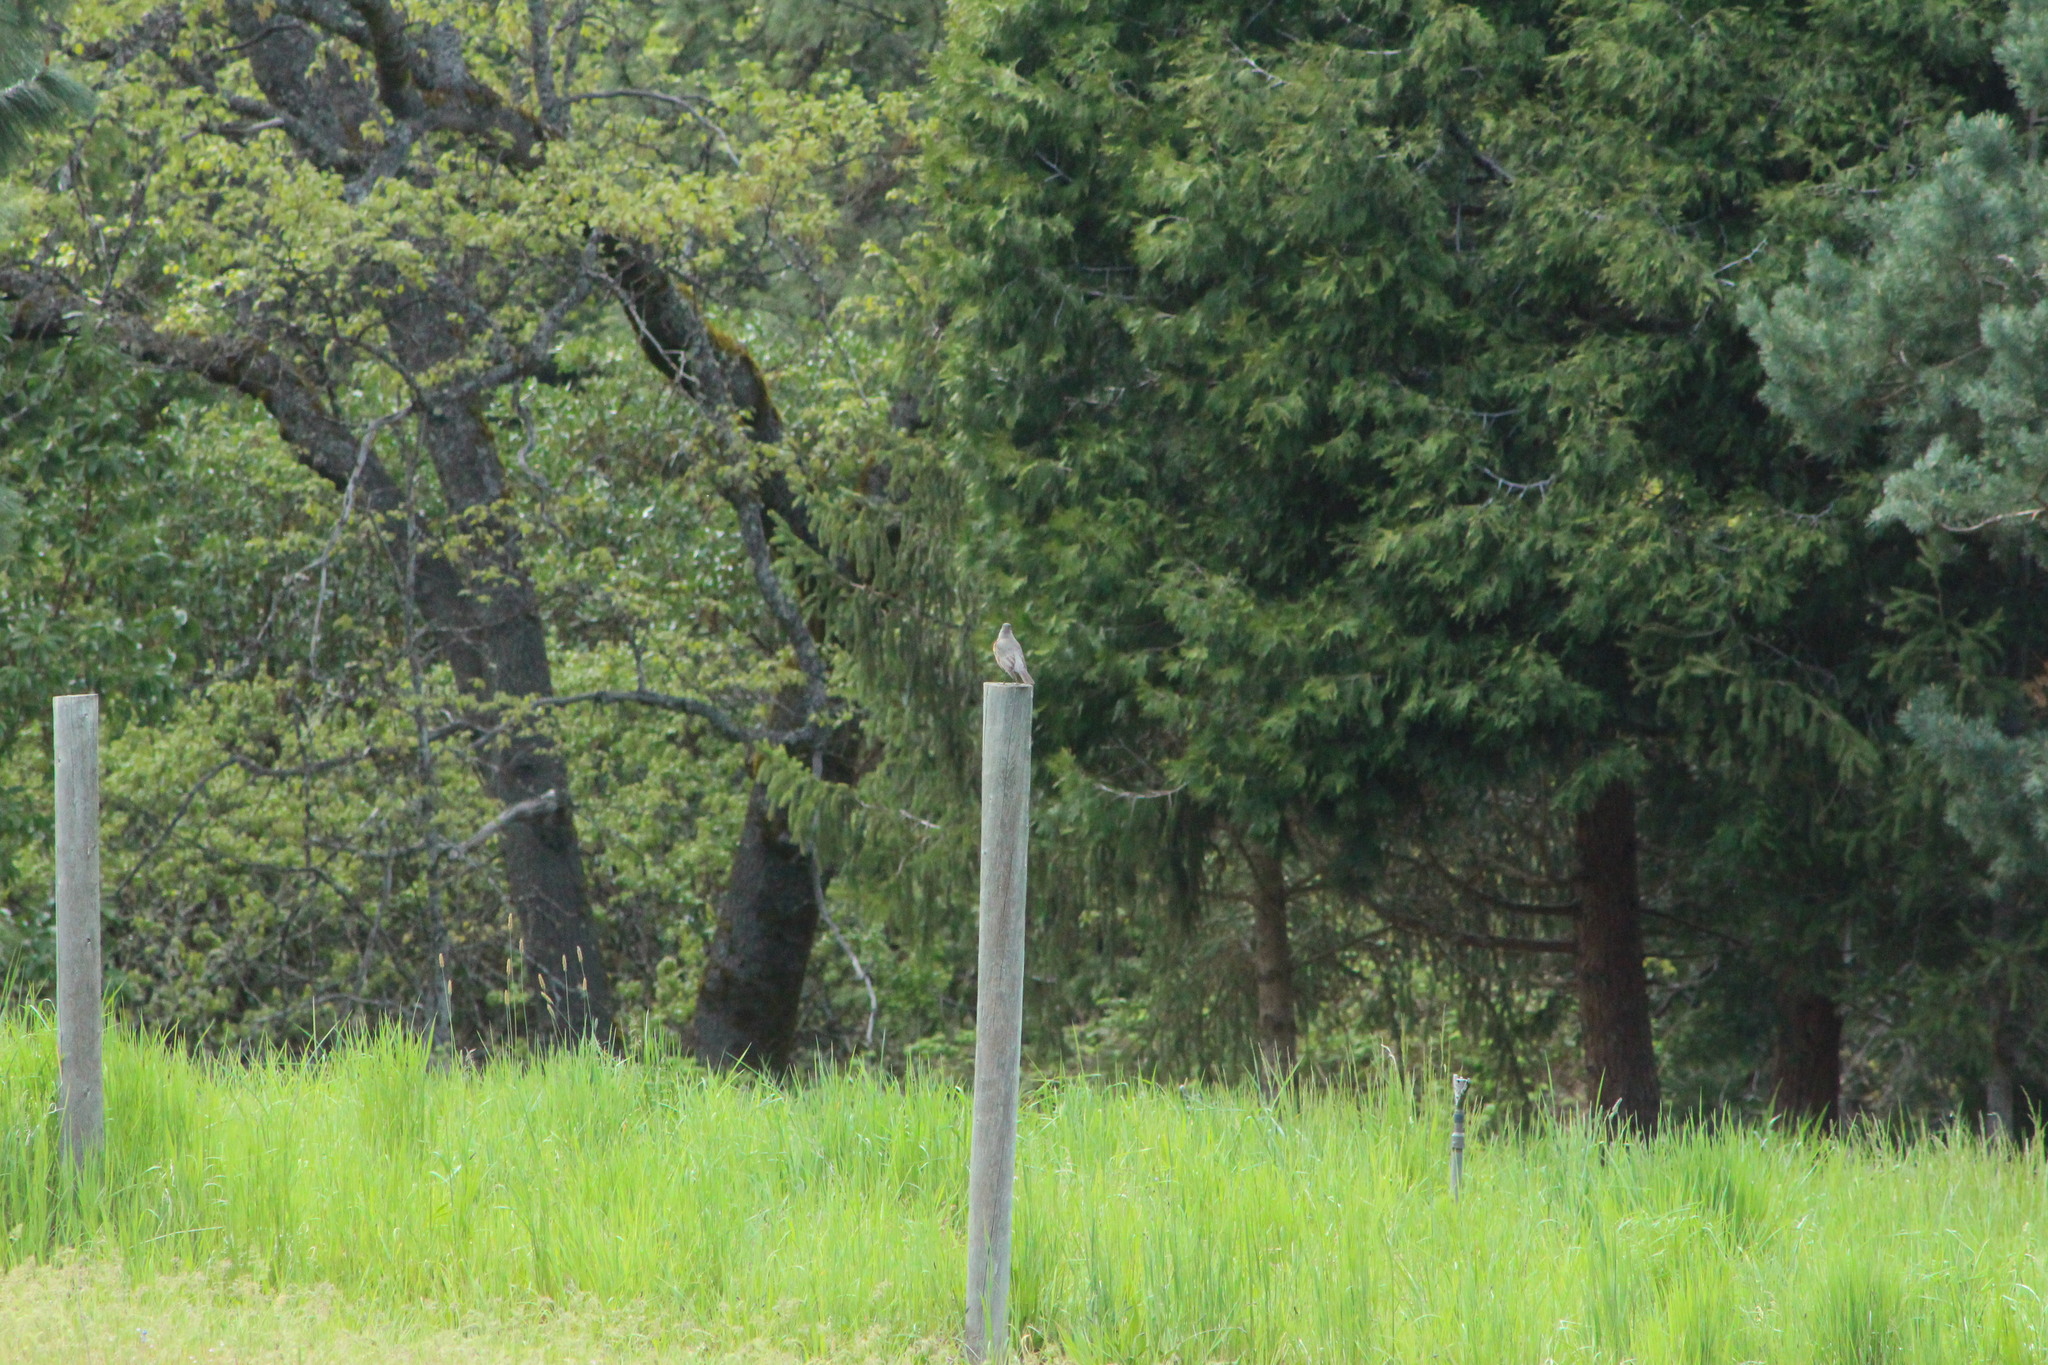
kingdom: Animalia
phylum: Chordata
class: Aves
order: Passeriformes
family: Turdidae
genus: Turdus
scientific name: Turdus migratorius
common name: American robin
